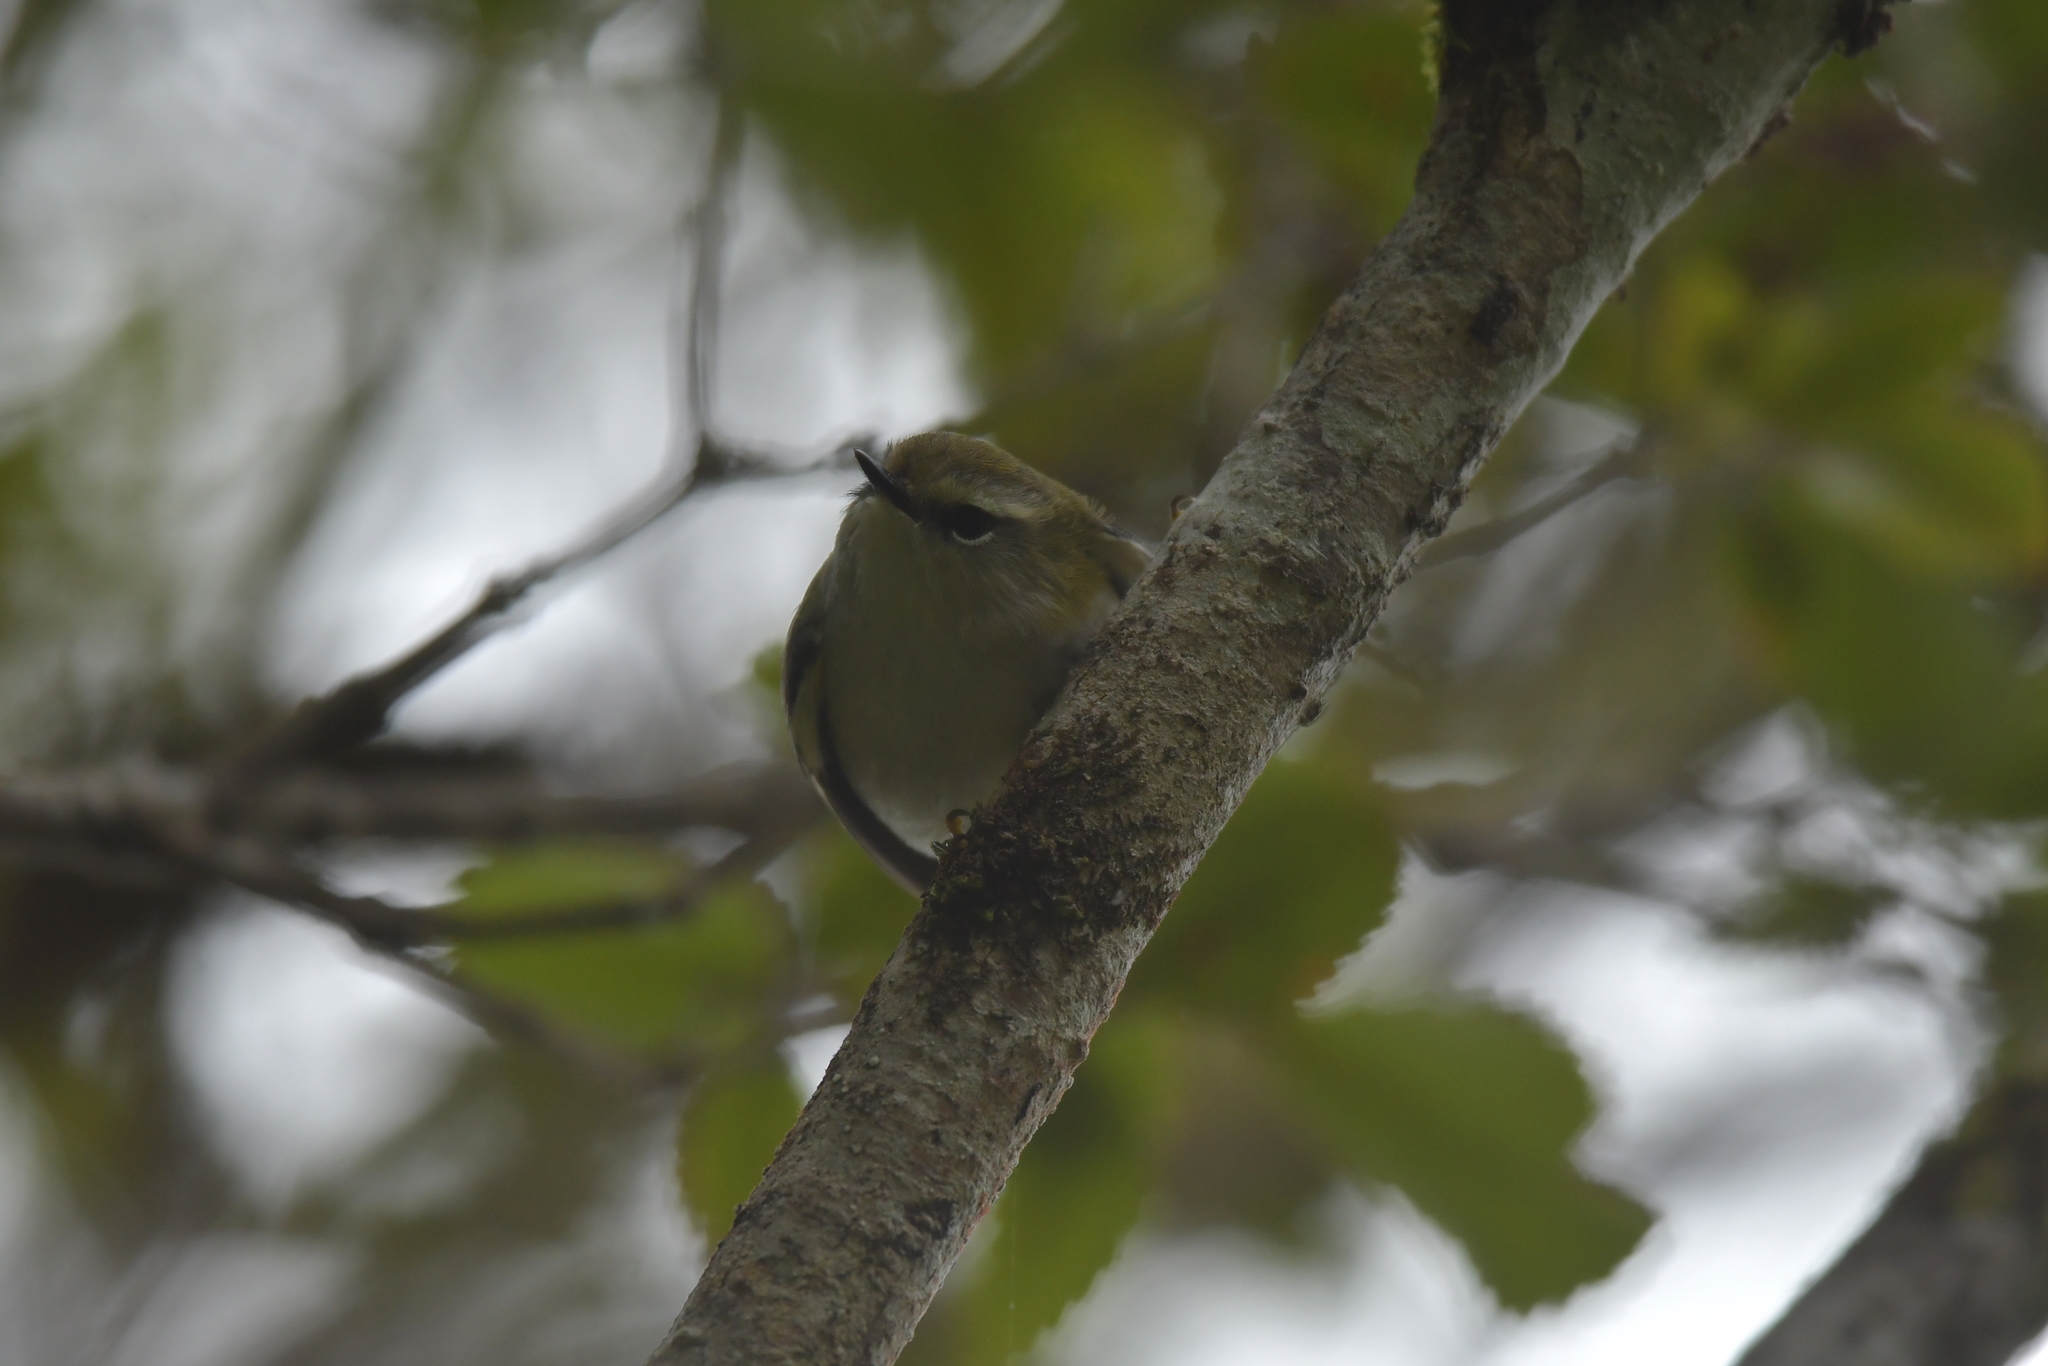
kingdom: Animalia
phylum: Chordata
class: Aves
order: Passeriformes
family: Acanthisittidae
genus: Acanthisitta
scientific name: Acanthisitta chloris
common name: Rifleman
